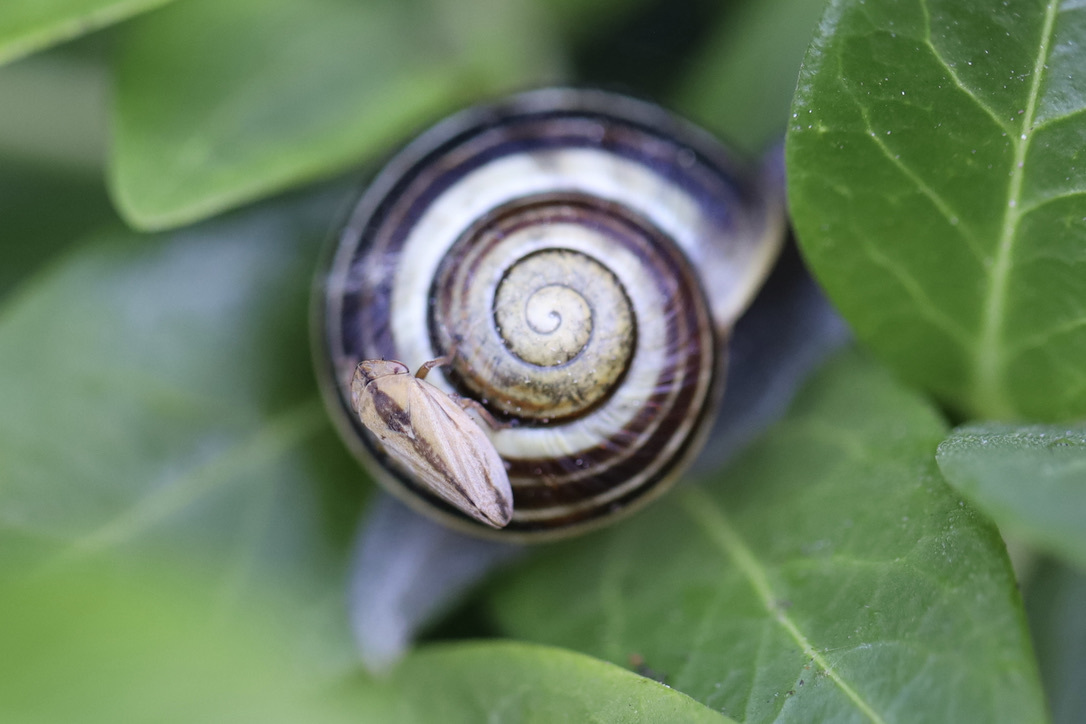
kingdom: Animalia
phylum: Mollusca
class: Gastropoda
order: Stylommatophora
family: Helicidae
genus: Cepaea
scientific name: Cepaea
